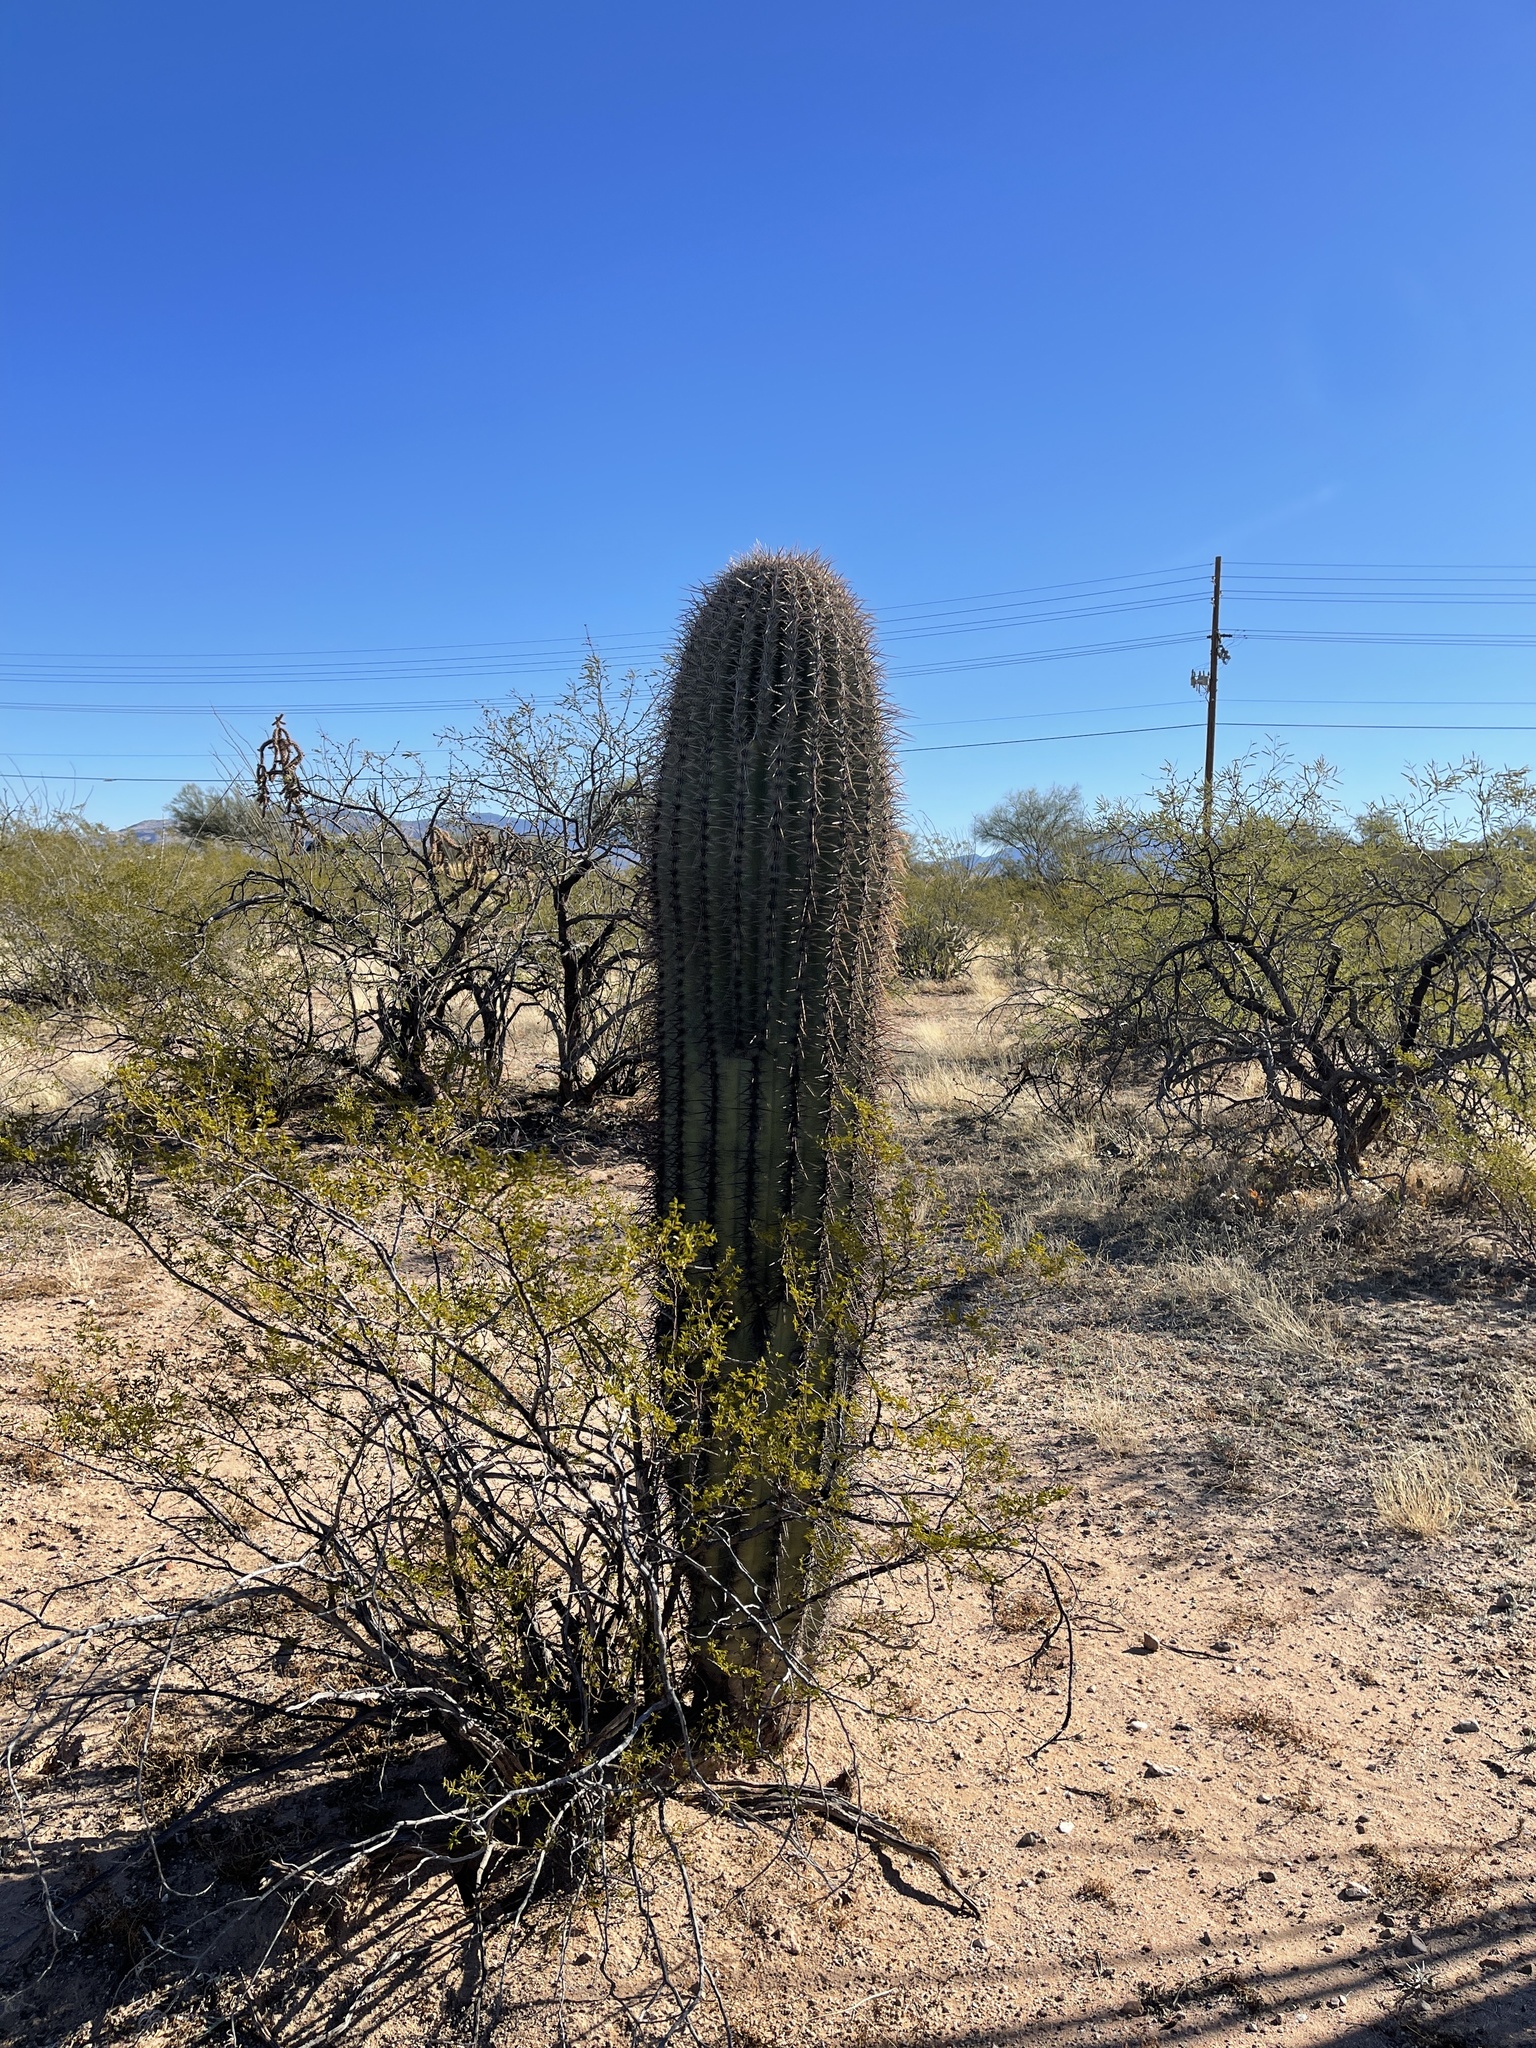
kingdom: Plantae
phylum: Tracheophyta
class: Magnoliopsida
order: Caryophyllales
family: Cactaceae
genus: Carnegiea
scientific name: Carnegiea gigantea
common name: Saguaro
